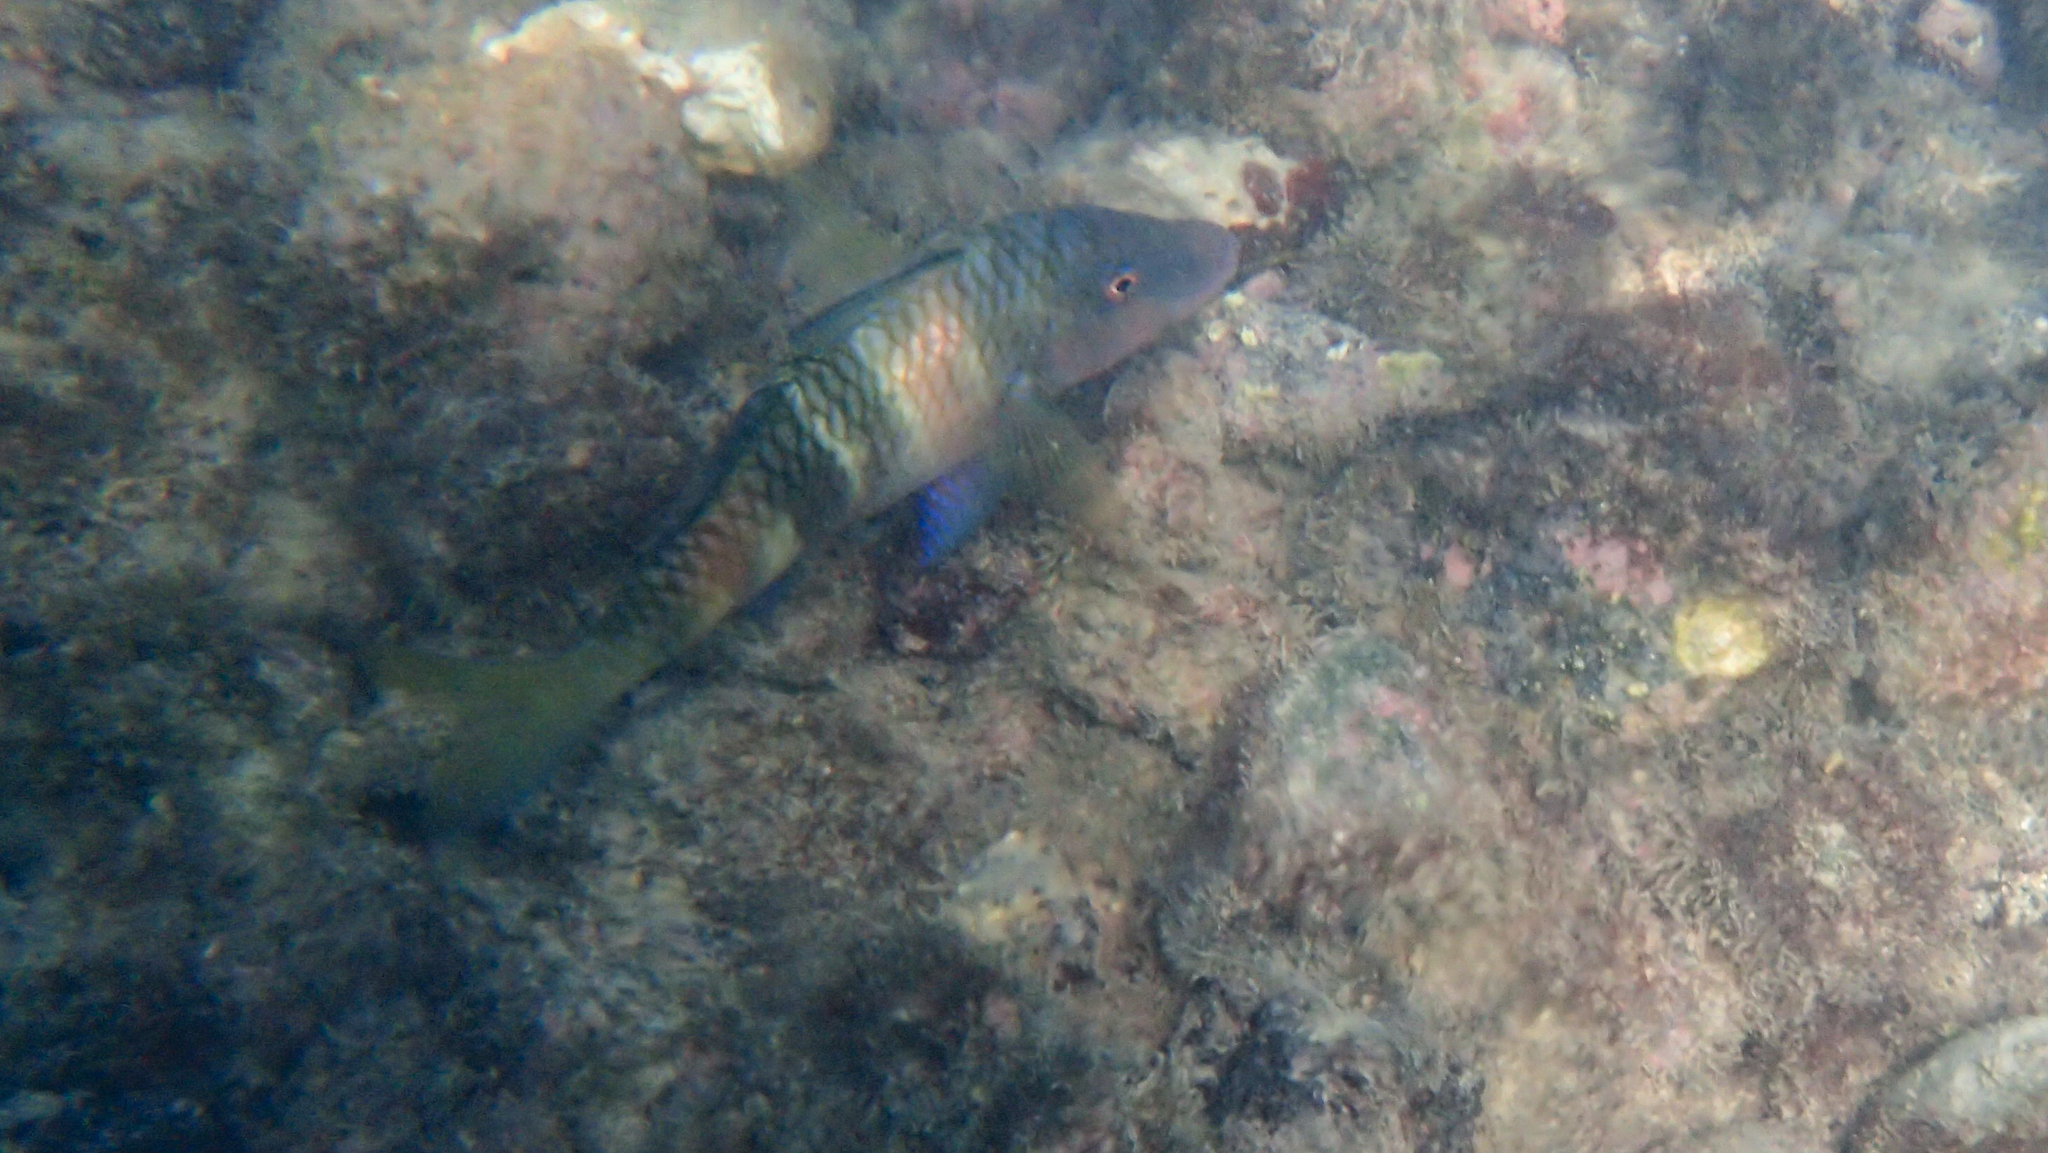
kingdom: Animalia
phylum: Chordata
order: Perciformes
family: Mullidae
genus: Parupeneus
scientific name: Parupeneus multifasciatus
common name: Manybar goatfish
